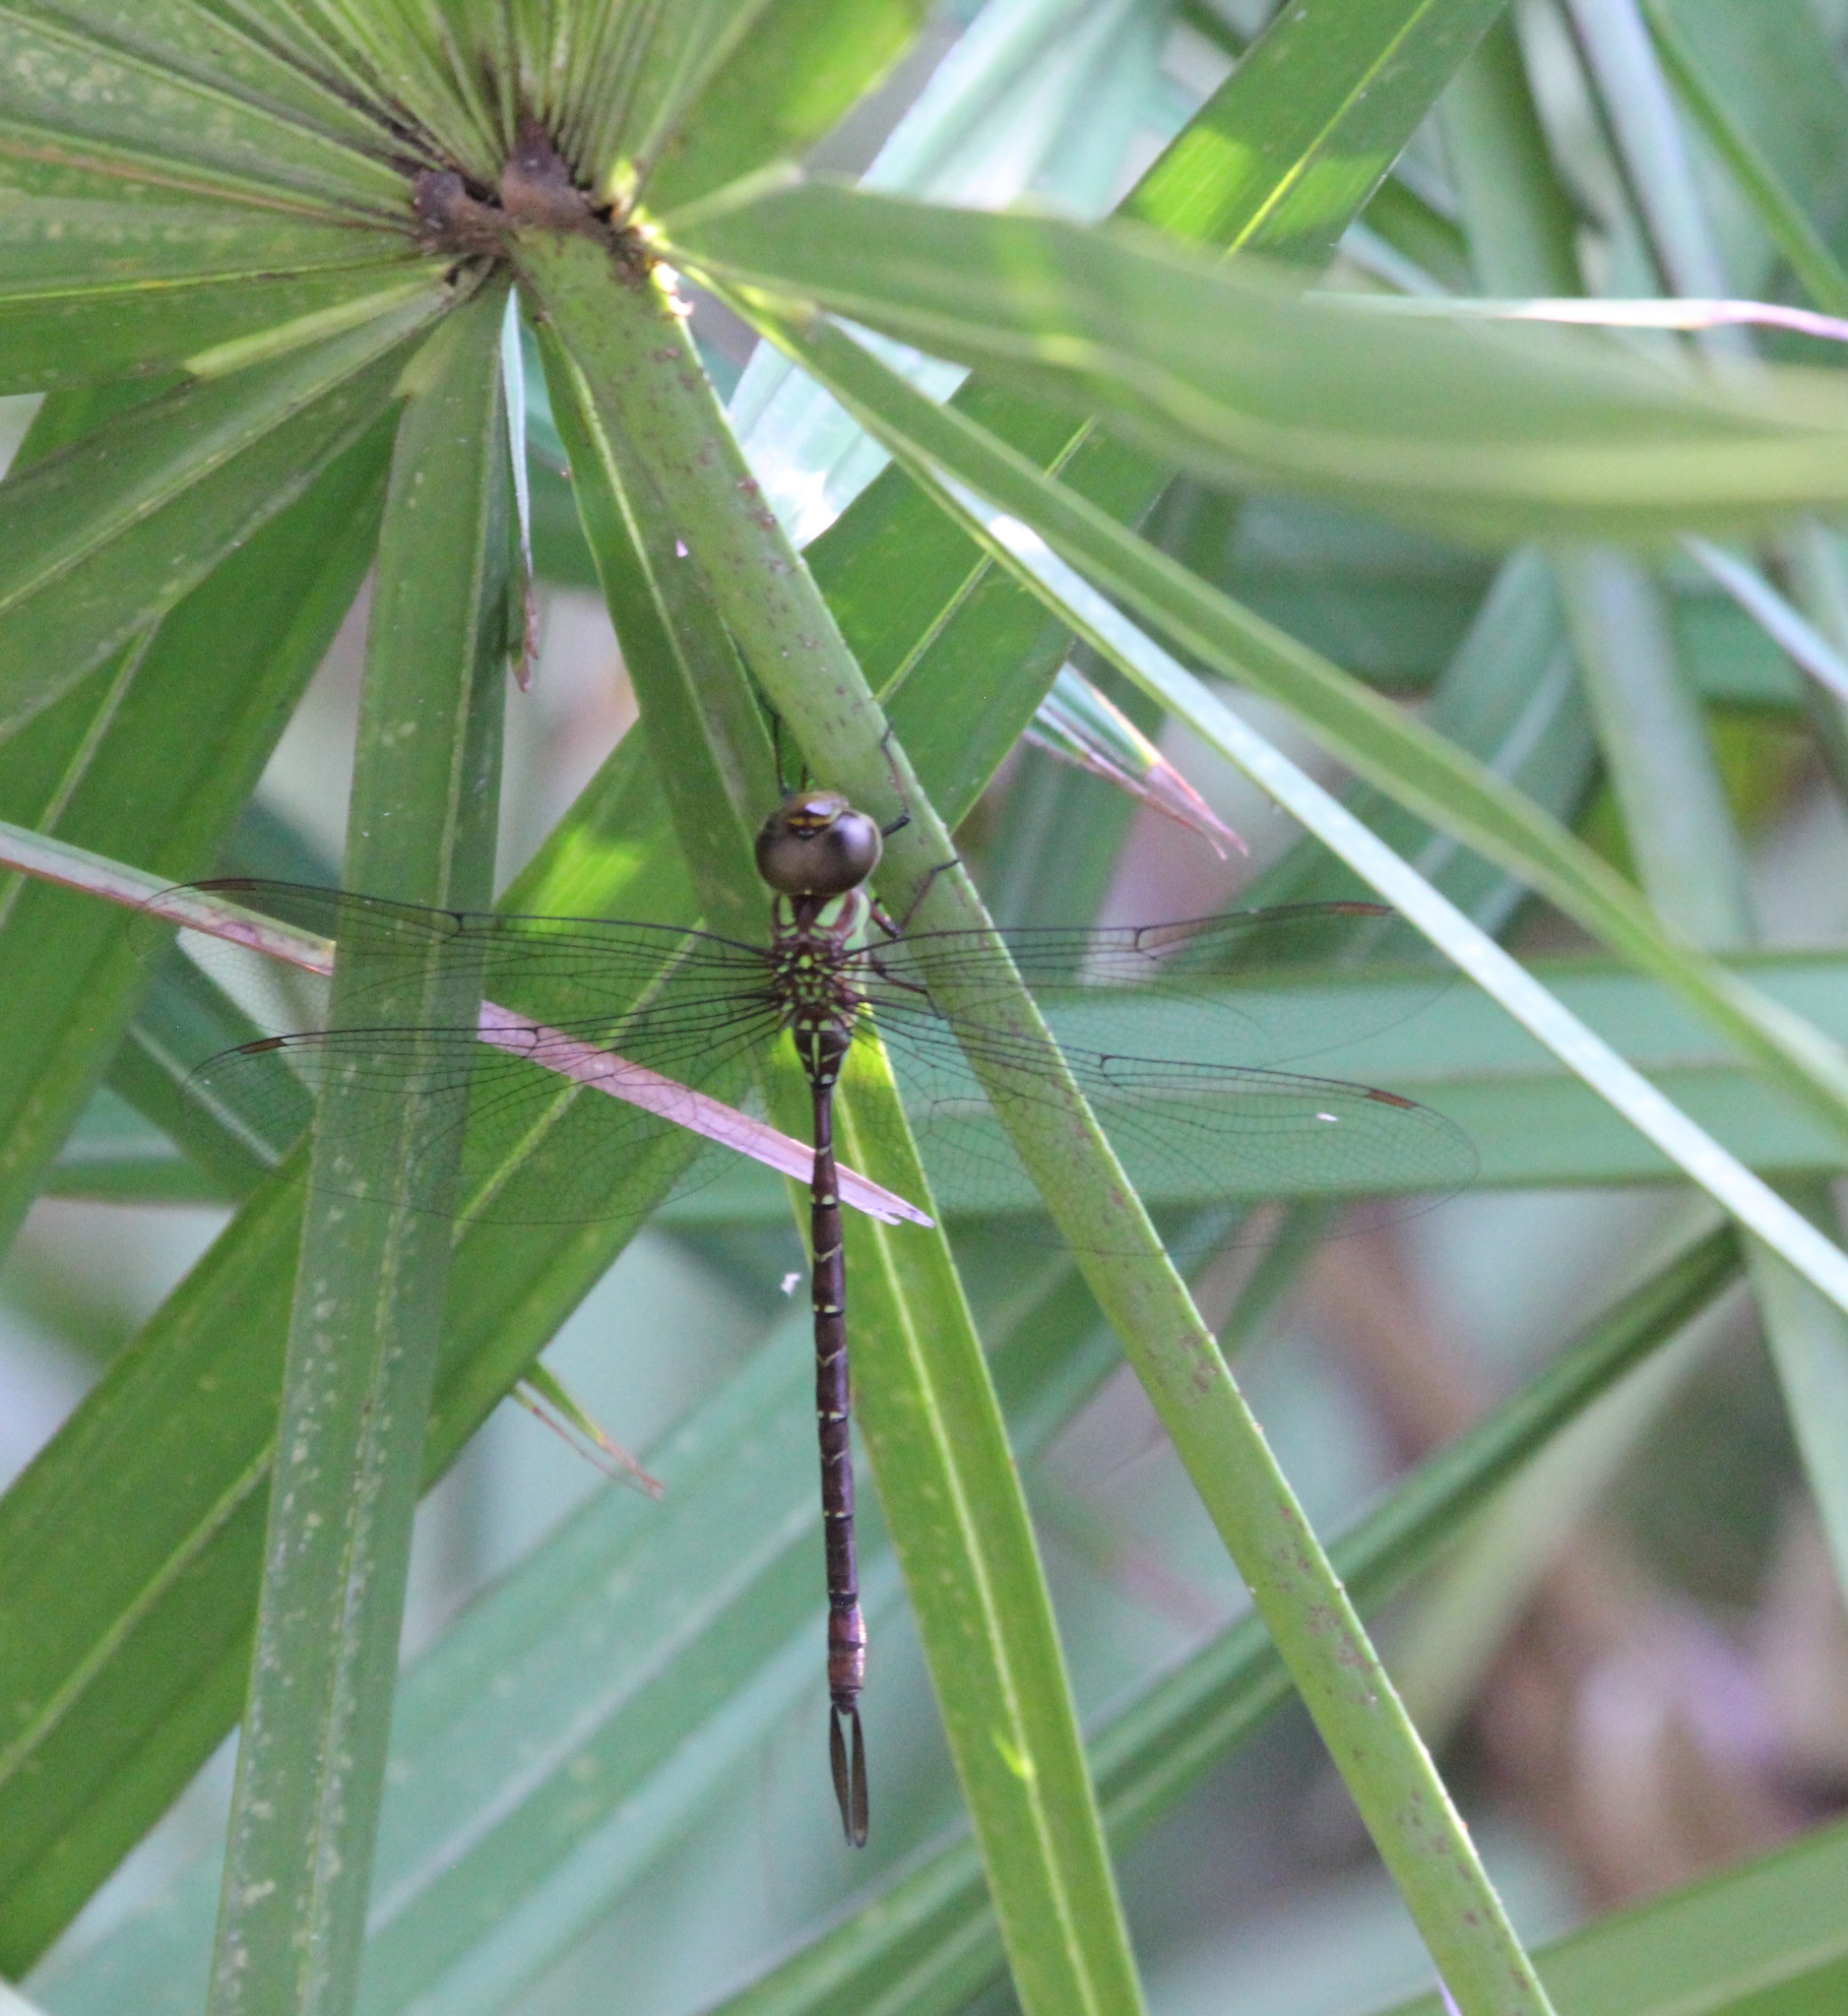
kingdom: Animalia
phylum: Arthropoda
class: Insecta
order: Odonata
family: Aeshnidae
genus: Triacanthagyna
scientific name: Triacanthagyna trifida
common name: Phantom darner
